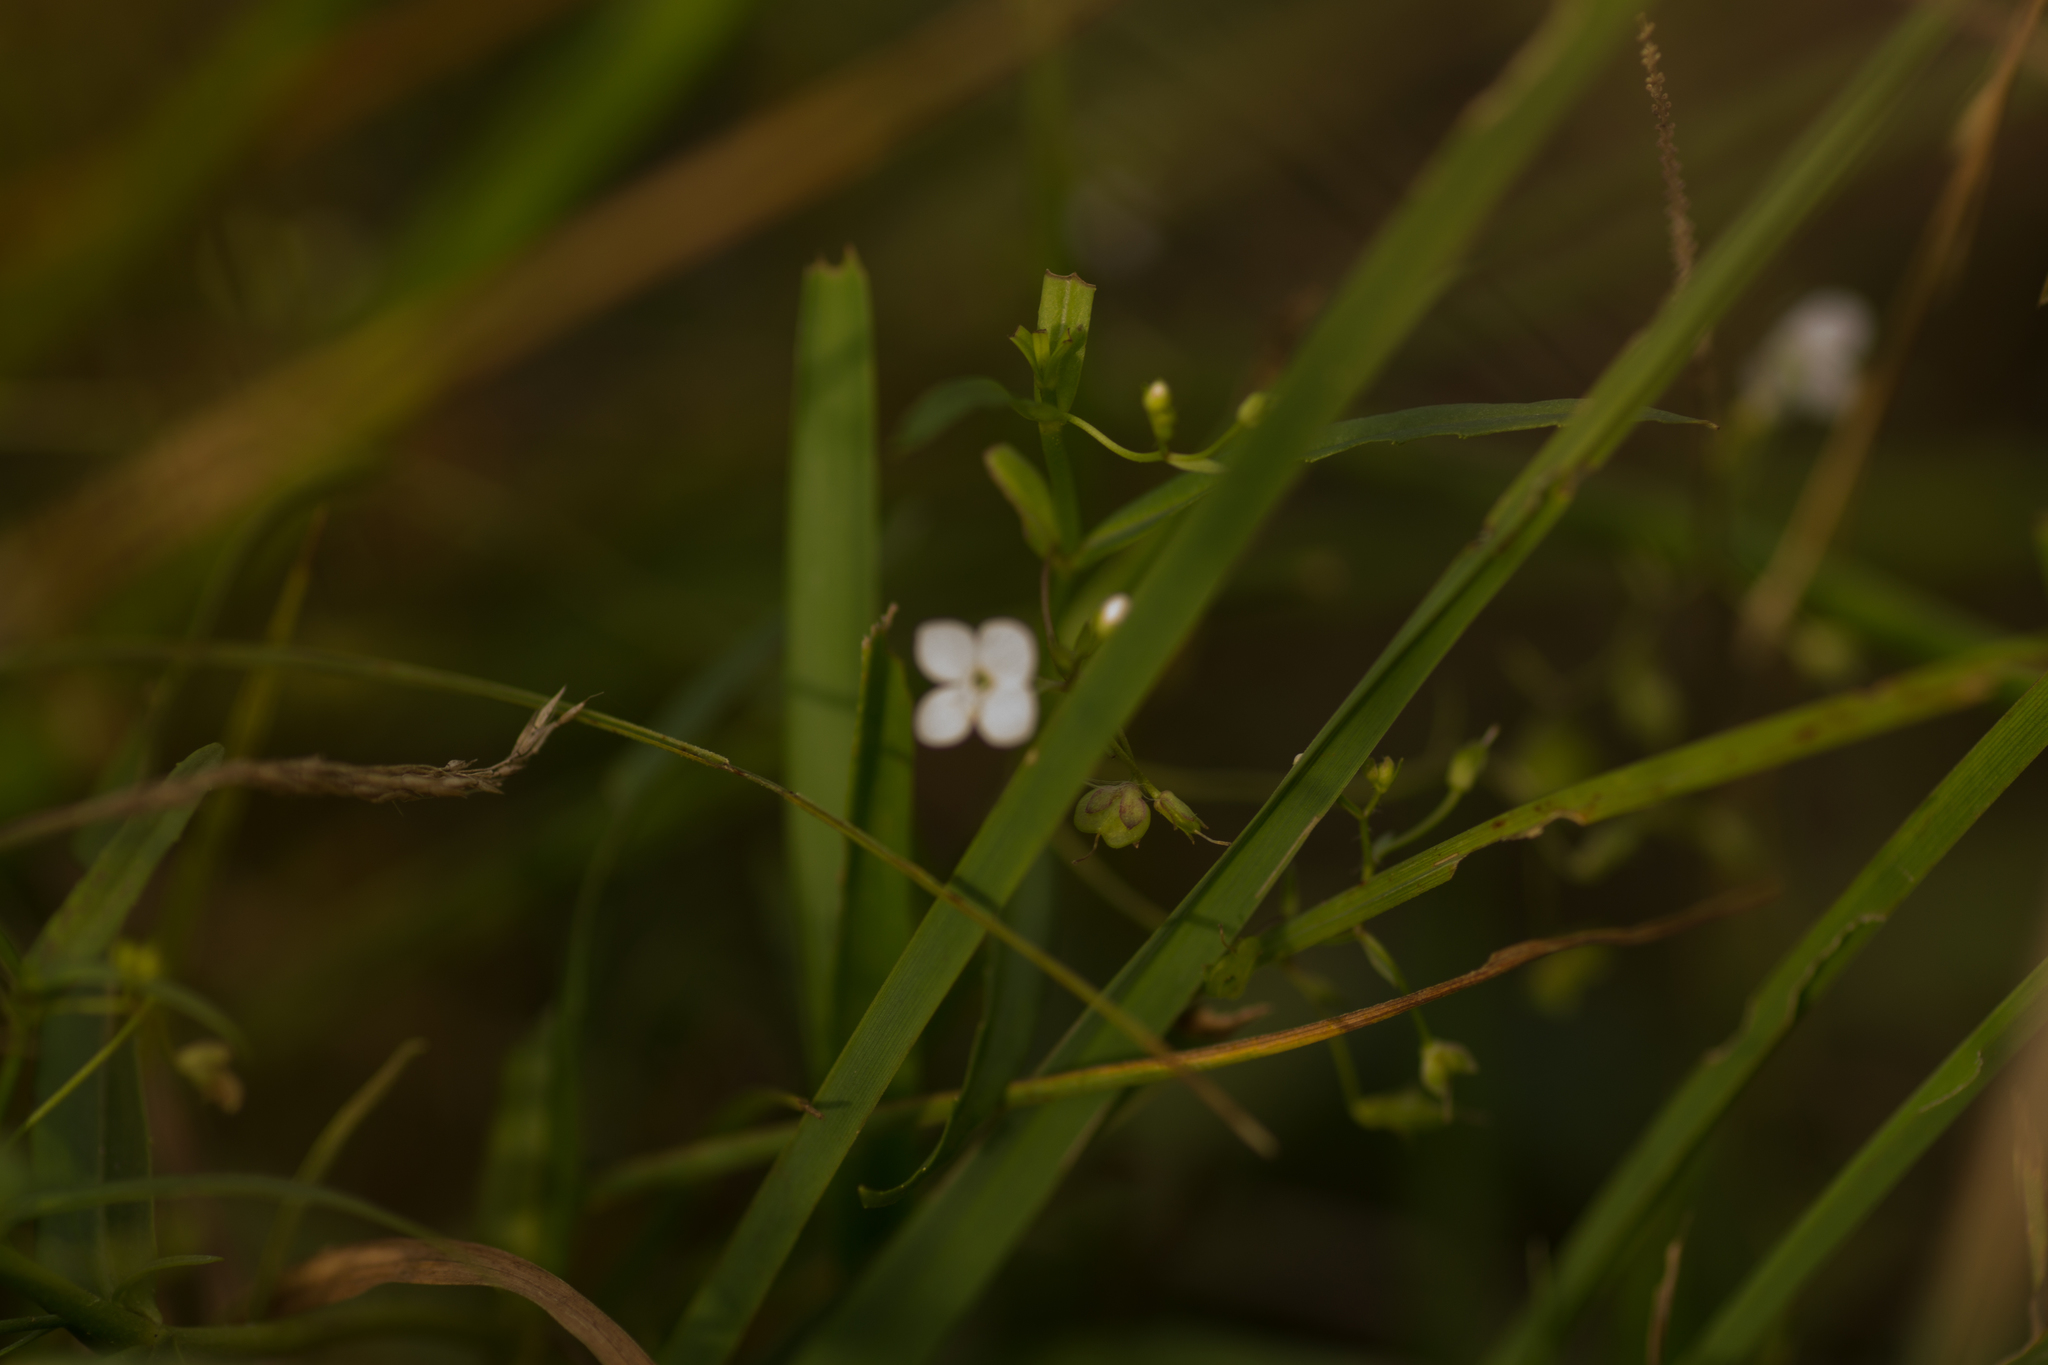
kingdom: Plantae
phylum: Tracheophyta
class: Magnoliopsida
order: Lamiales
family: Plantaginaceae
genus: Veronica
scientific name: Veronica scutellata
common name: Marsh speedwell
